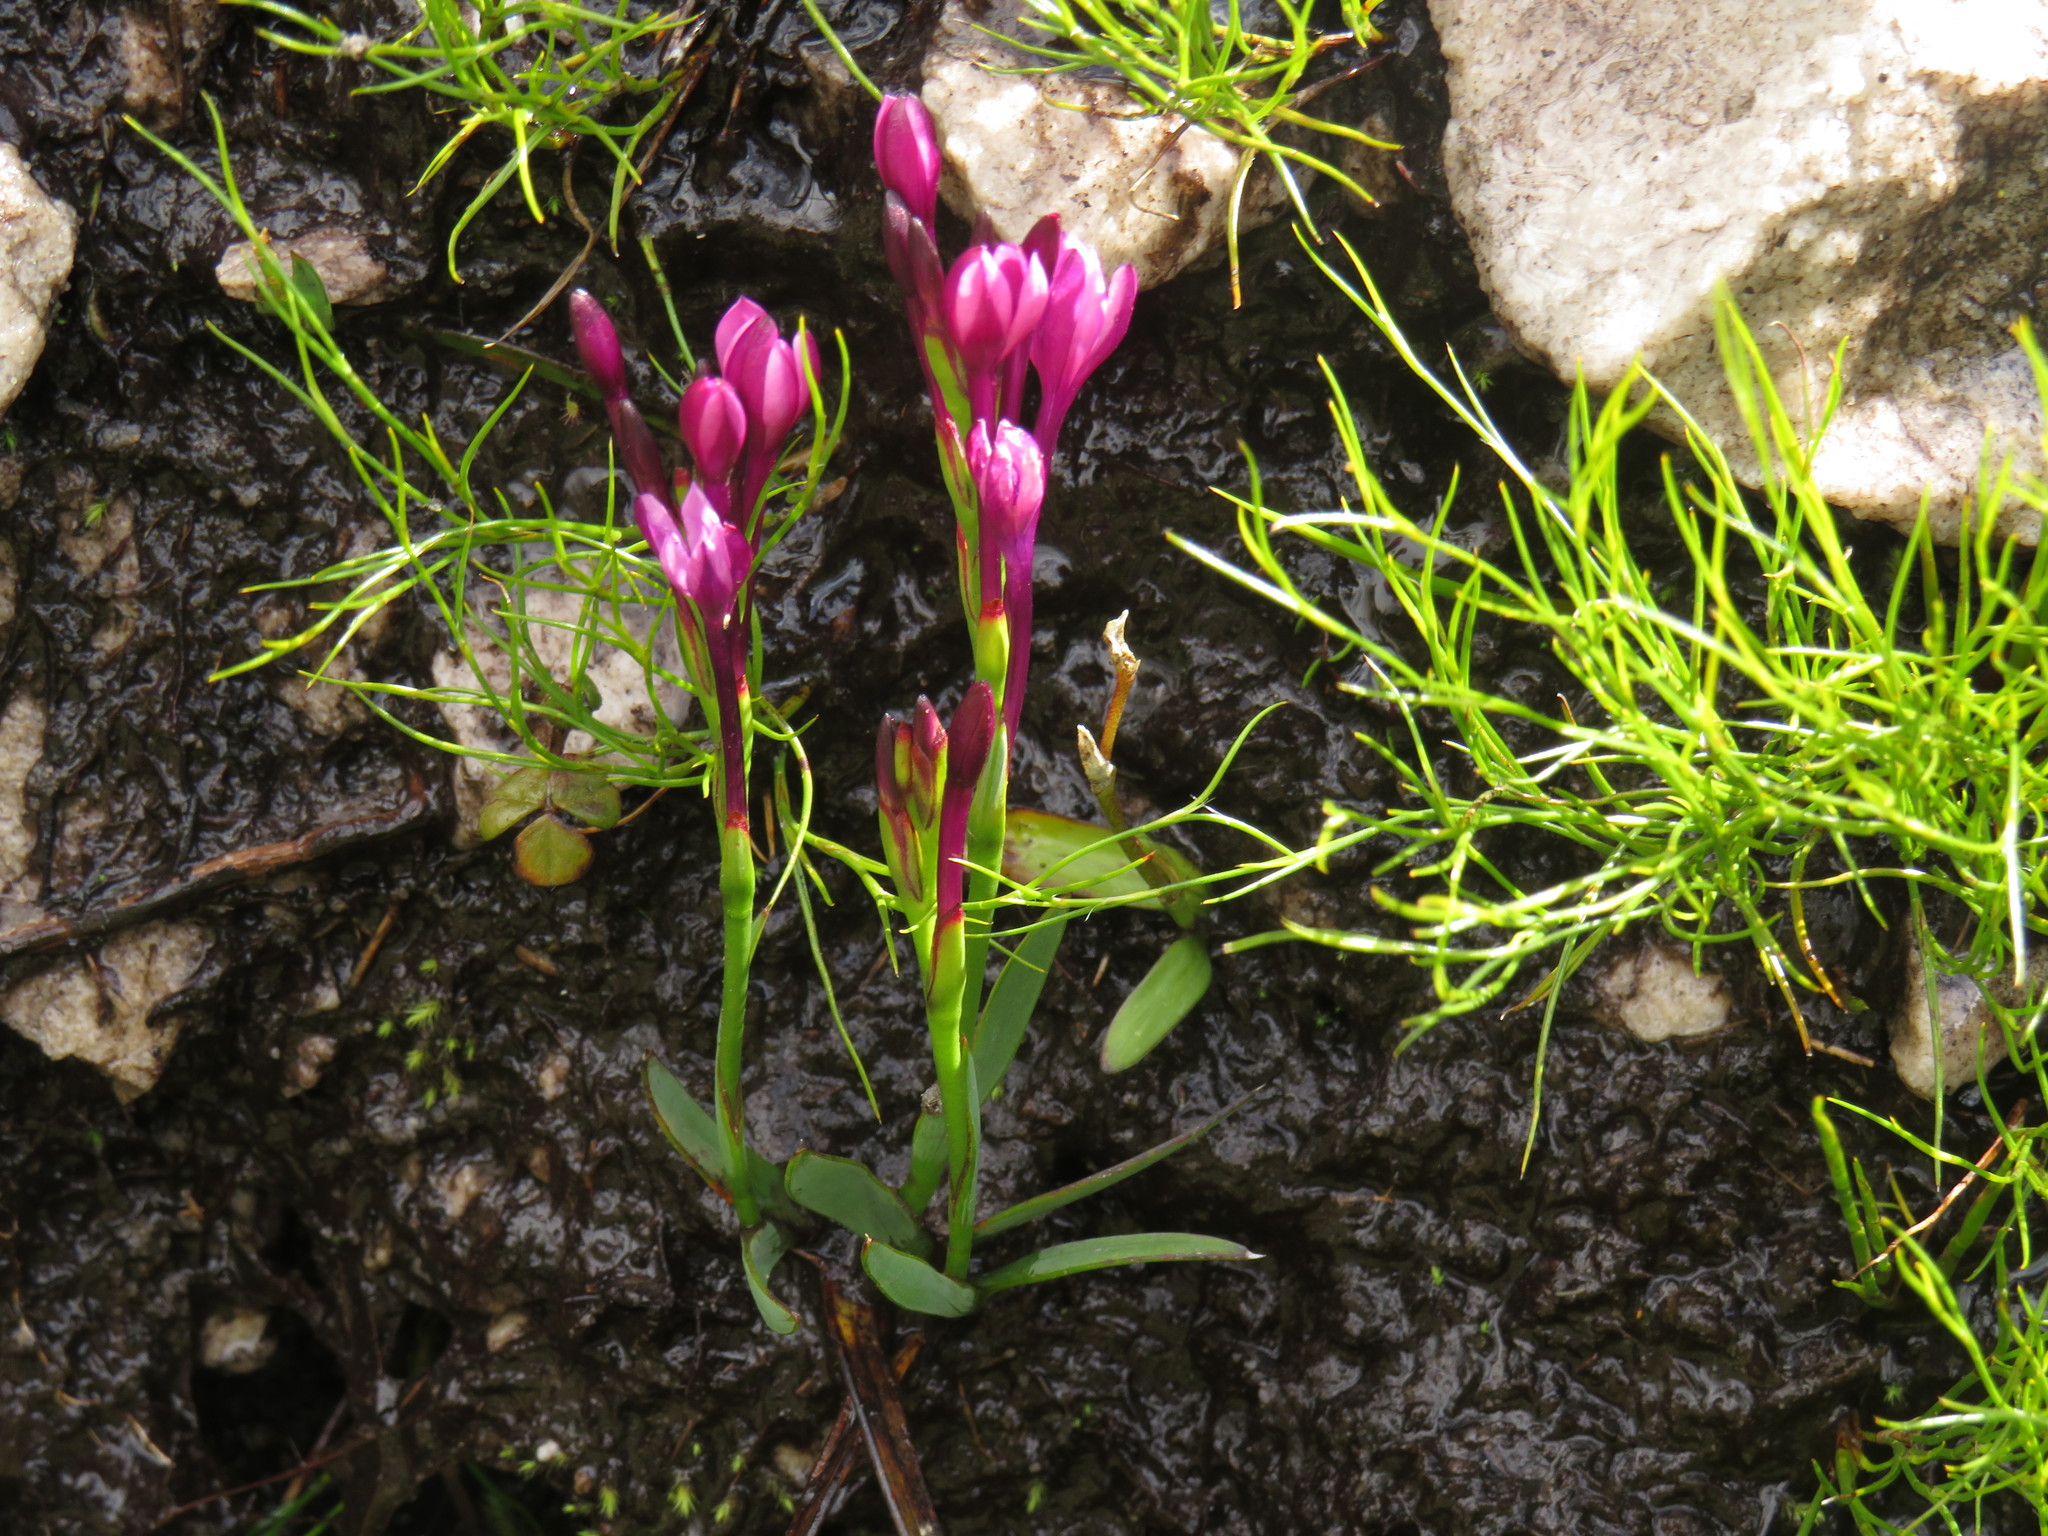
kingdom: Plantae
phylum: Tracheophyta
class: Liliopsida
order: Asparagales
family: Iridaceae
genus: Thereianthus
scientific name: Thereianthus minutus
